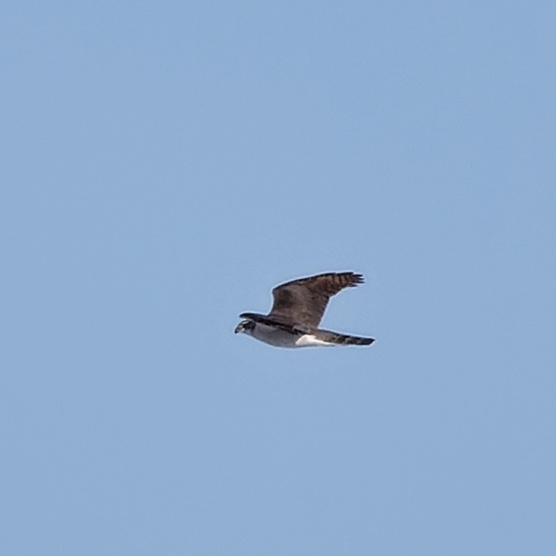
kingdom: Animalia
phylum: Chordata
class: Aves
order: Accipitriformes
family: Accipitridae
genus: Accipiter
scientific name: Accipiter gentilis
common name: Northern goshawk
